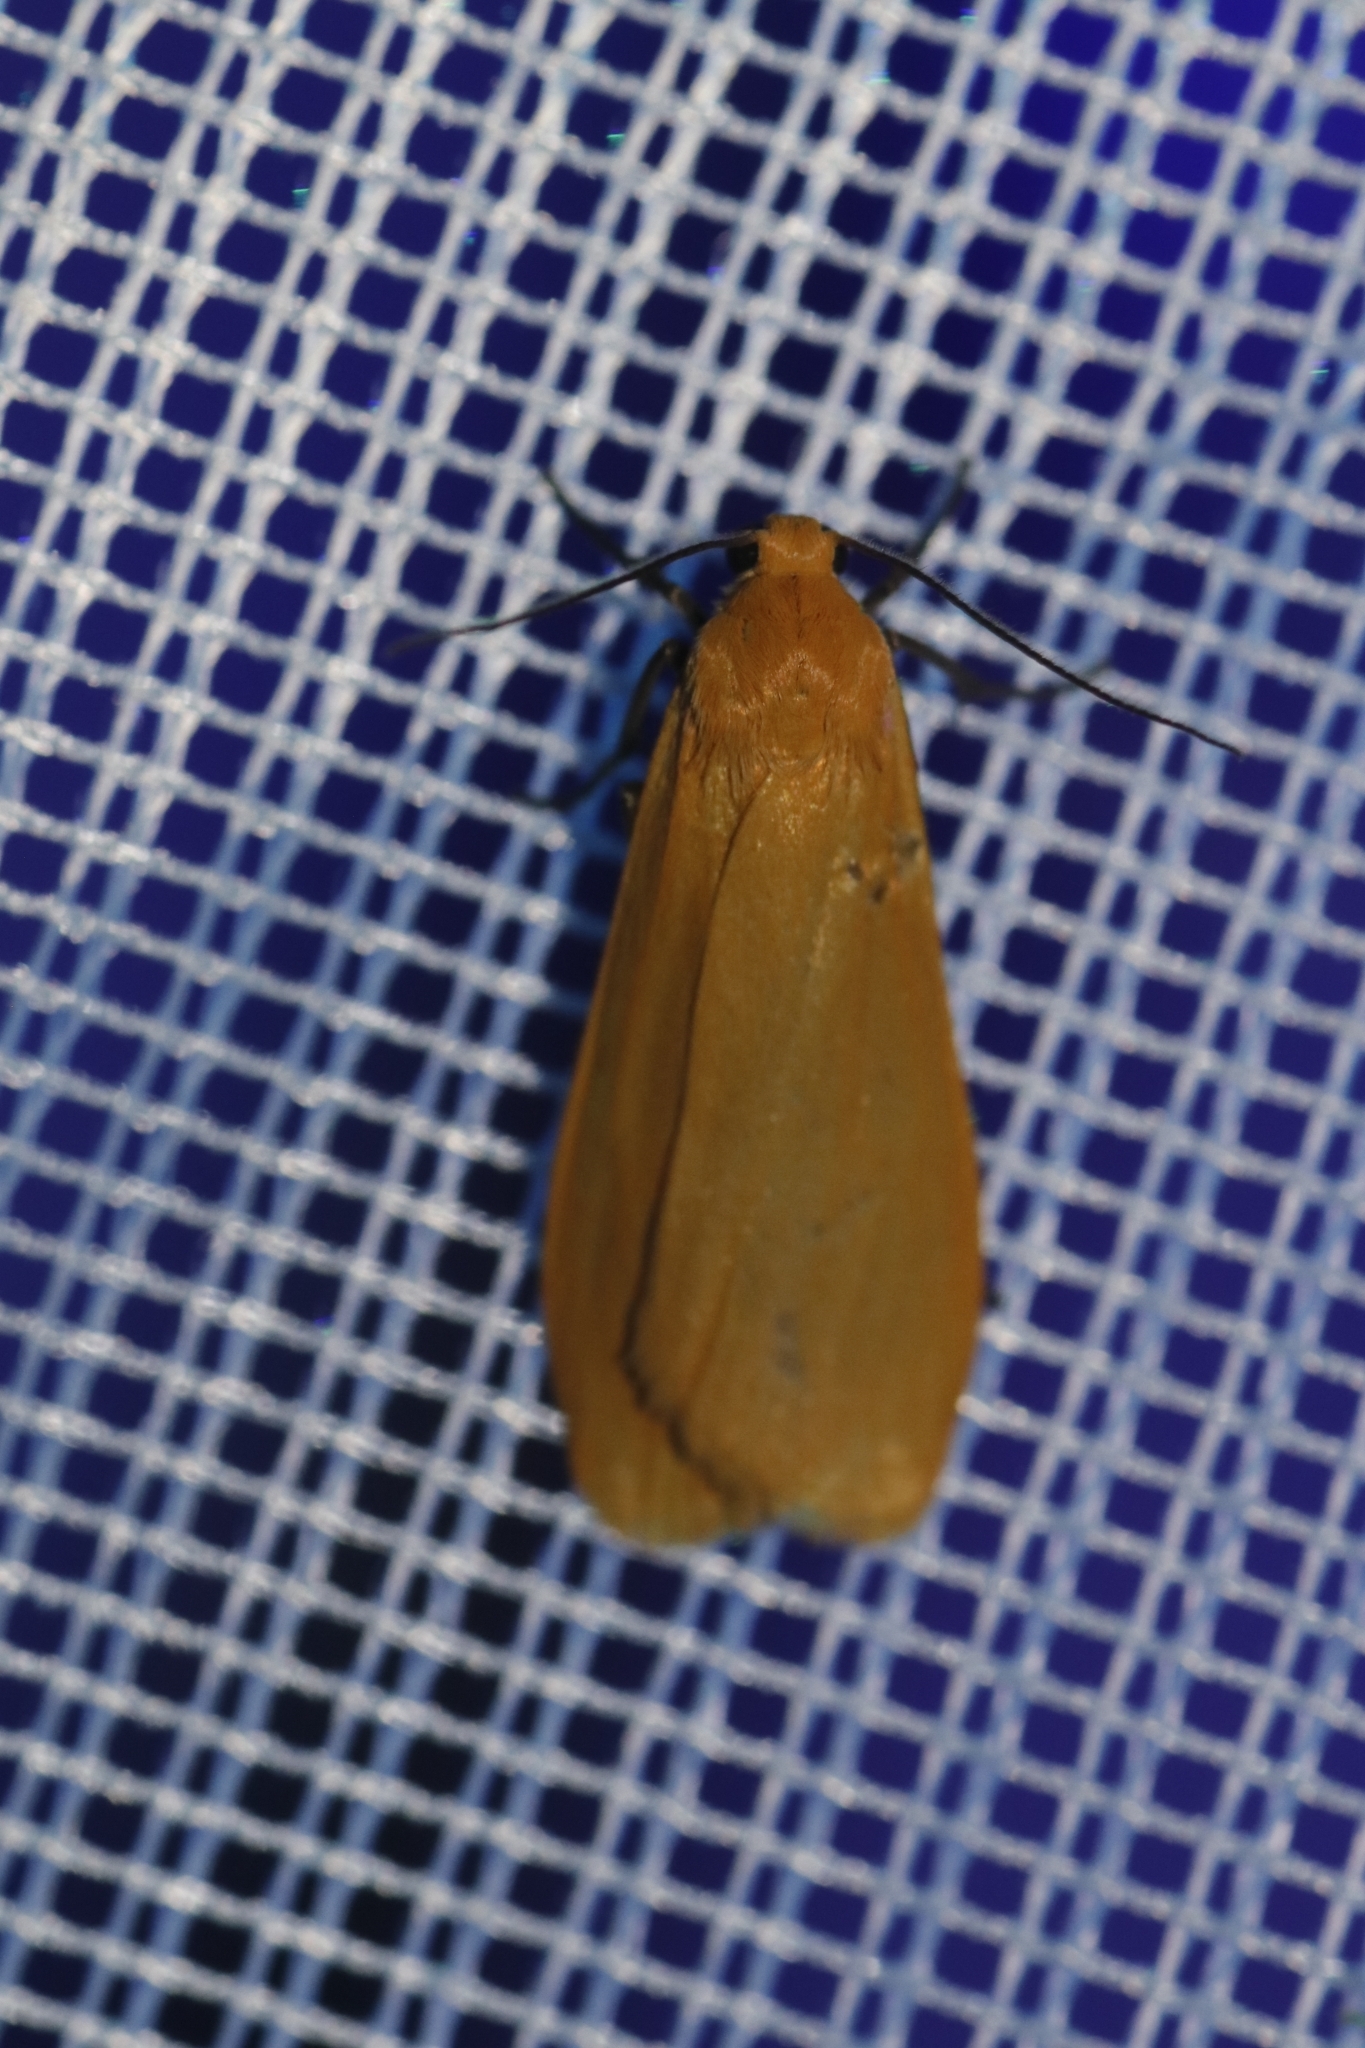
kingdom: Animalia
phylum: Arthropoda
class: Insecta
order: Lepidoptera
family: Erebidae
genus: Wittia
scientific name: Wittia sororcula
